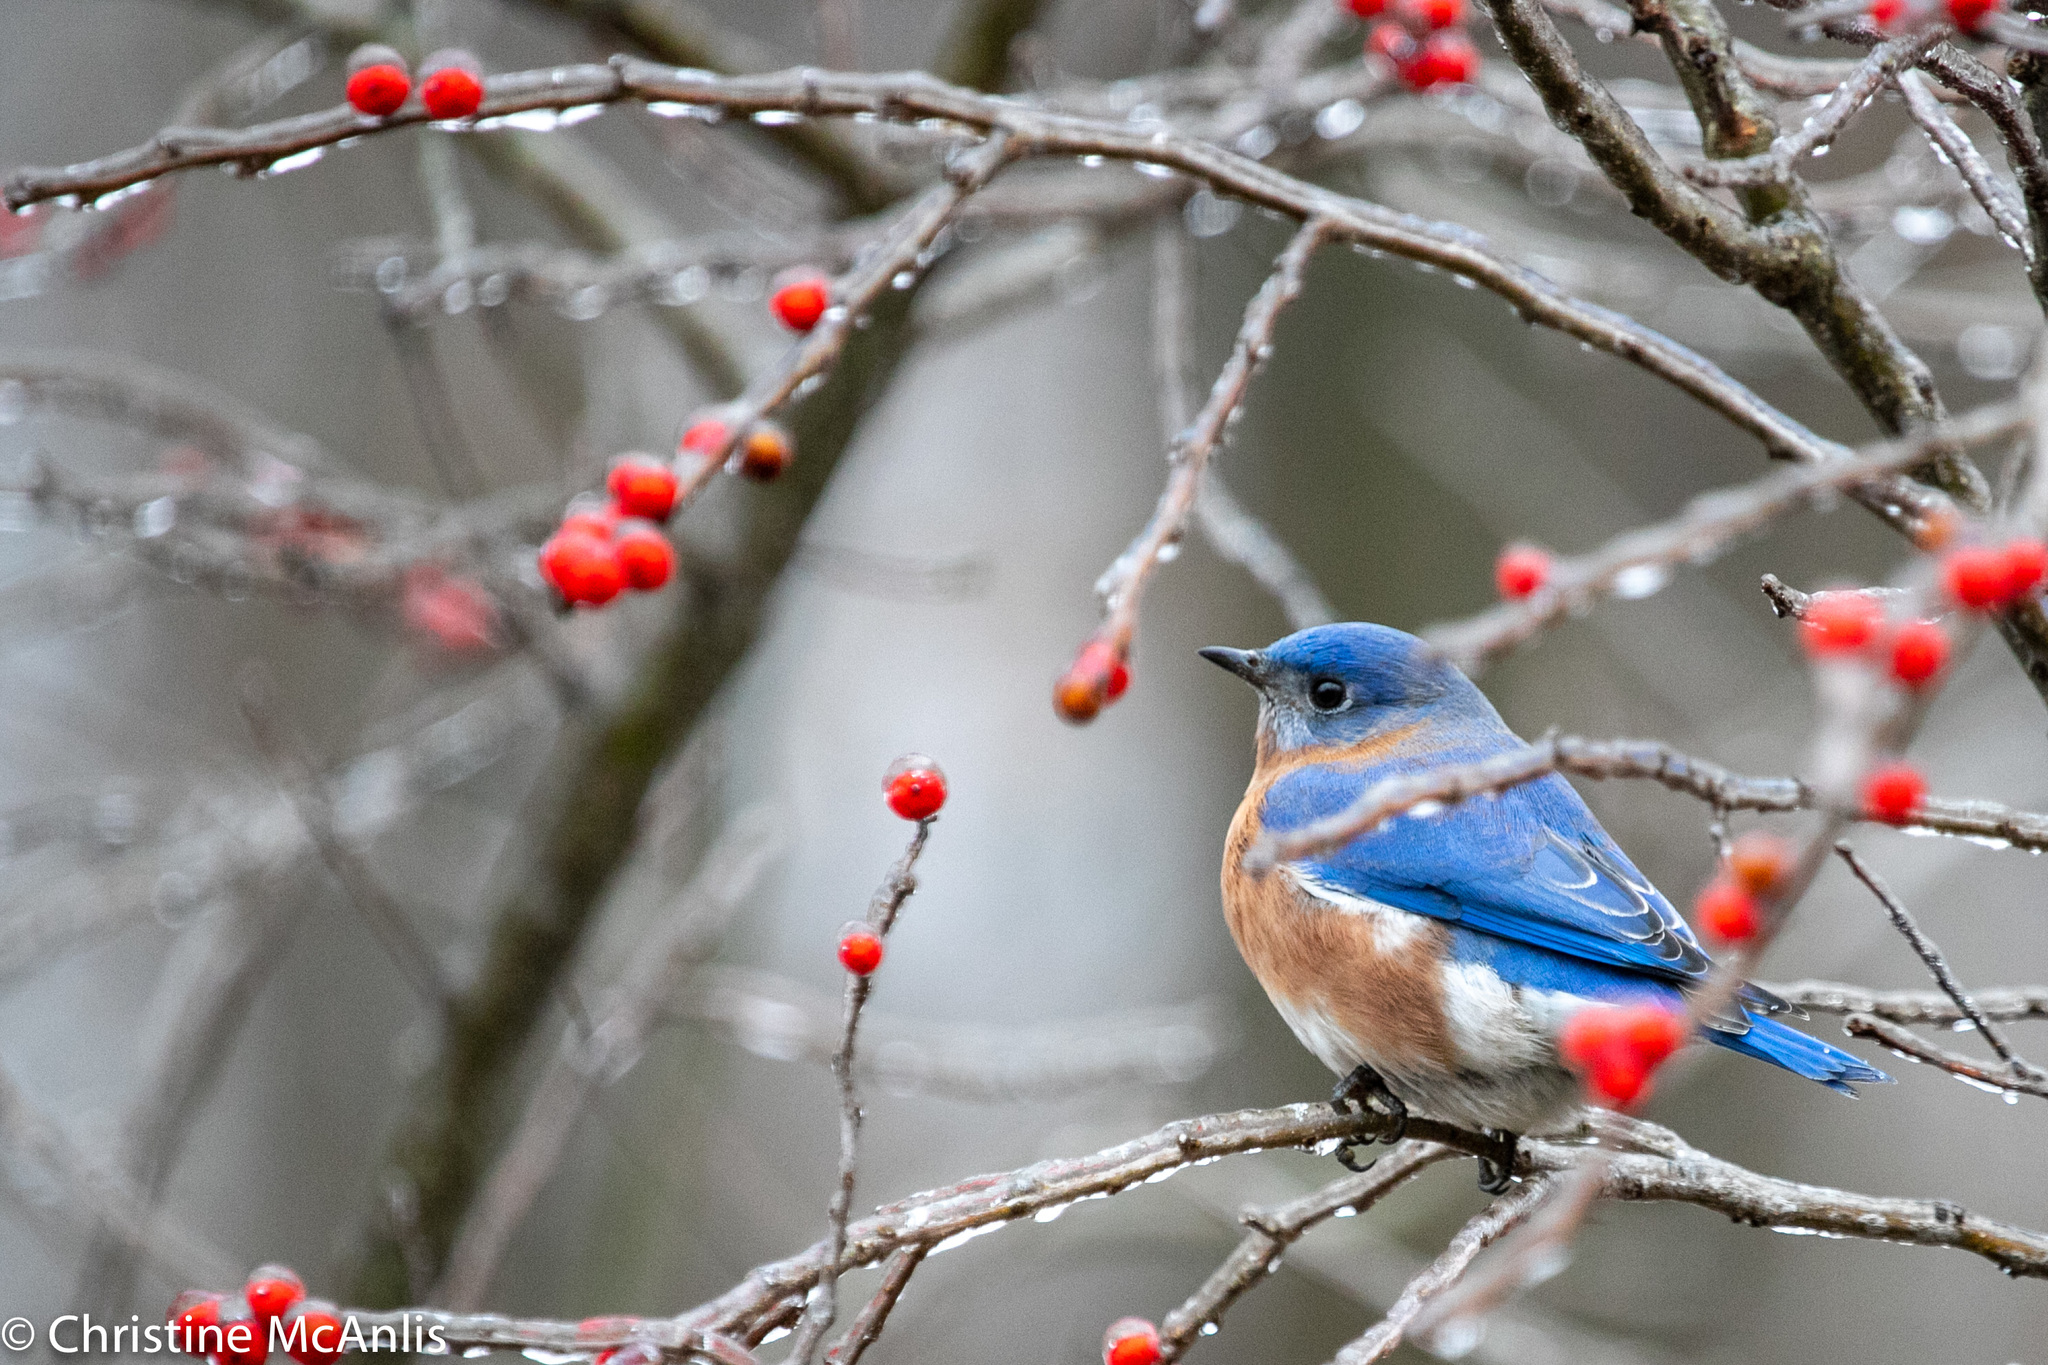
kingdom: Animalia
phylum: Chordata
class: Aves
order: Passeriformes
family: Turdidae
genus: Sialia
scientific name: Sialia sialis
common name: Eastern bluebird
